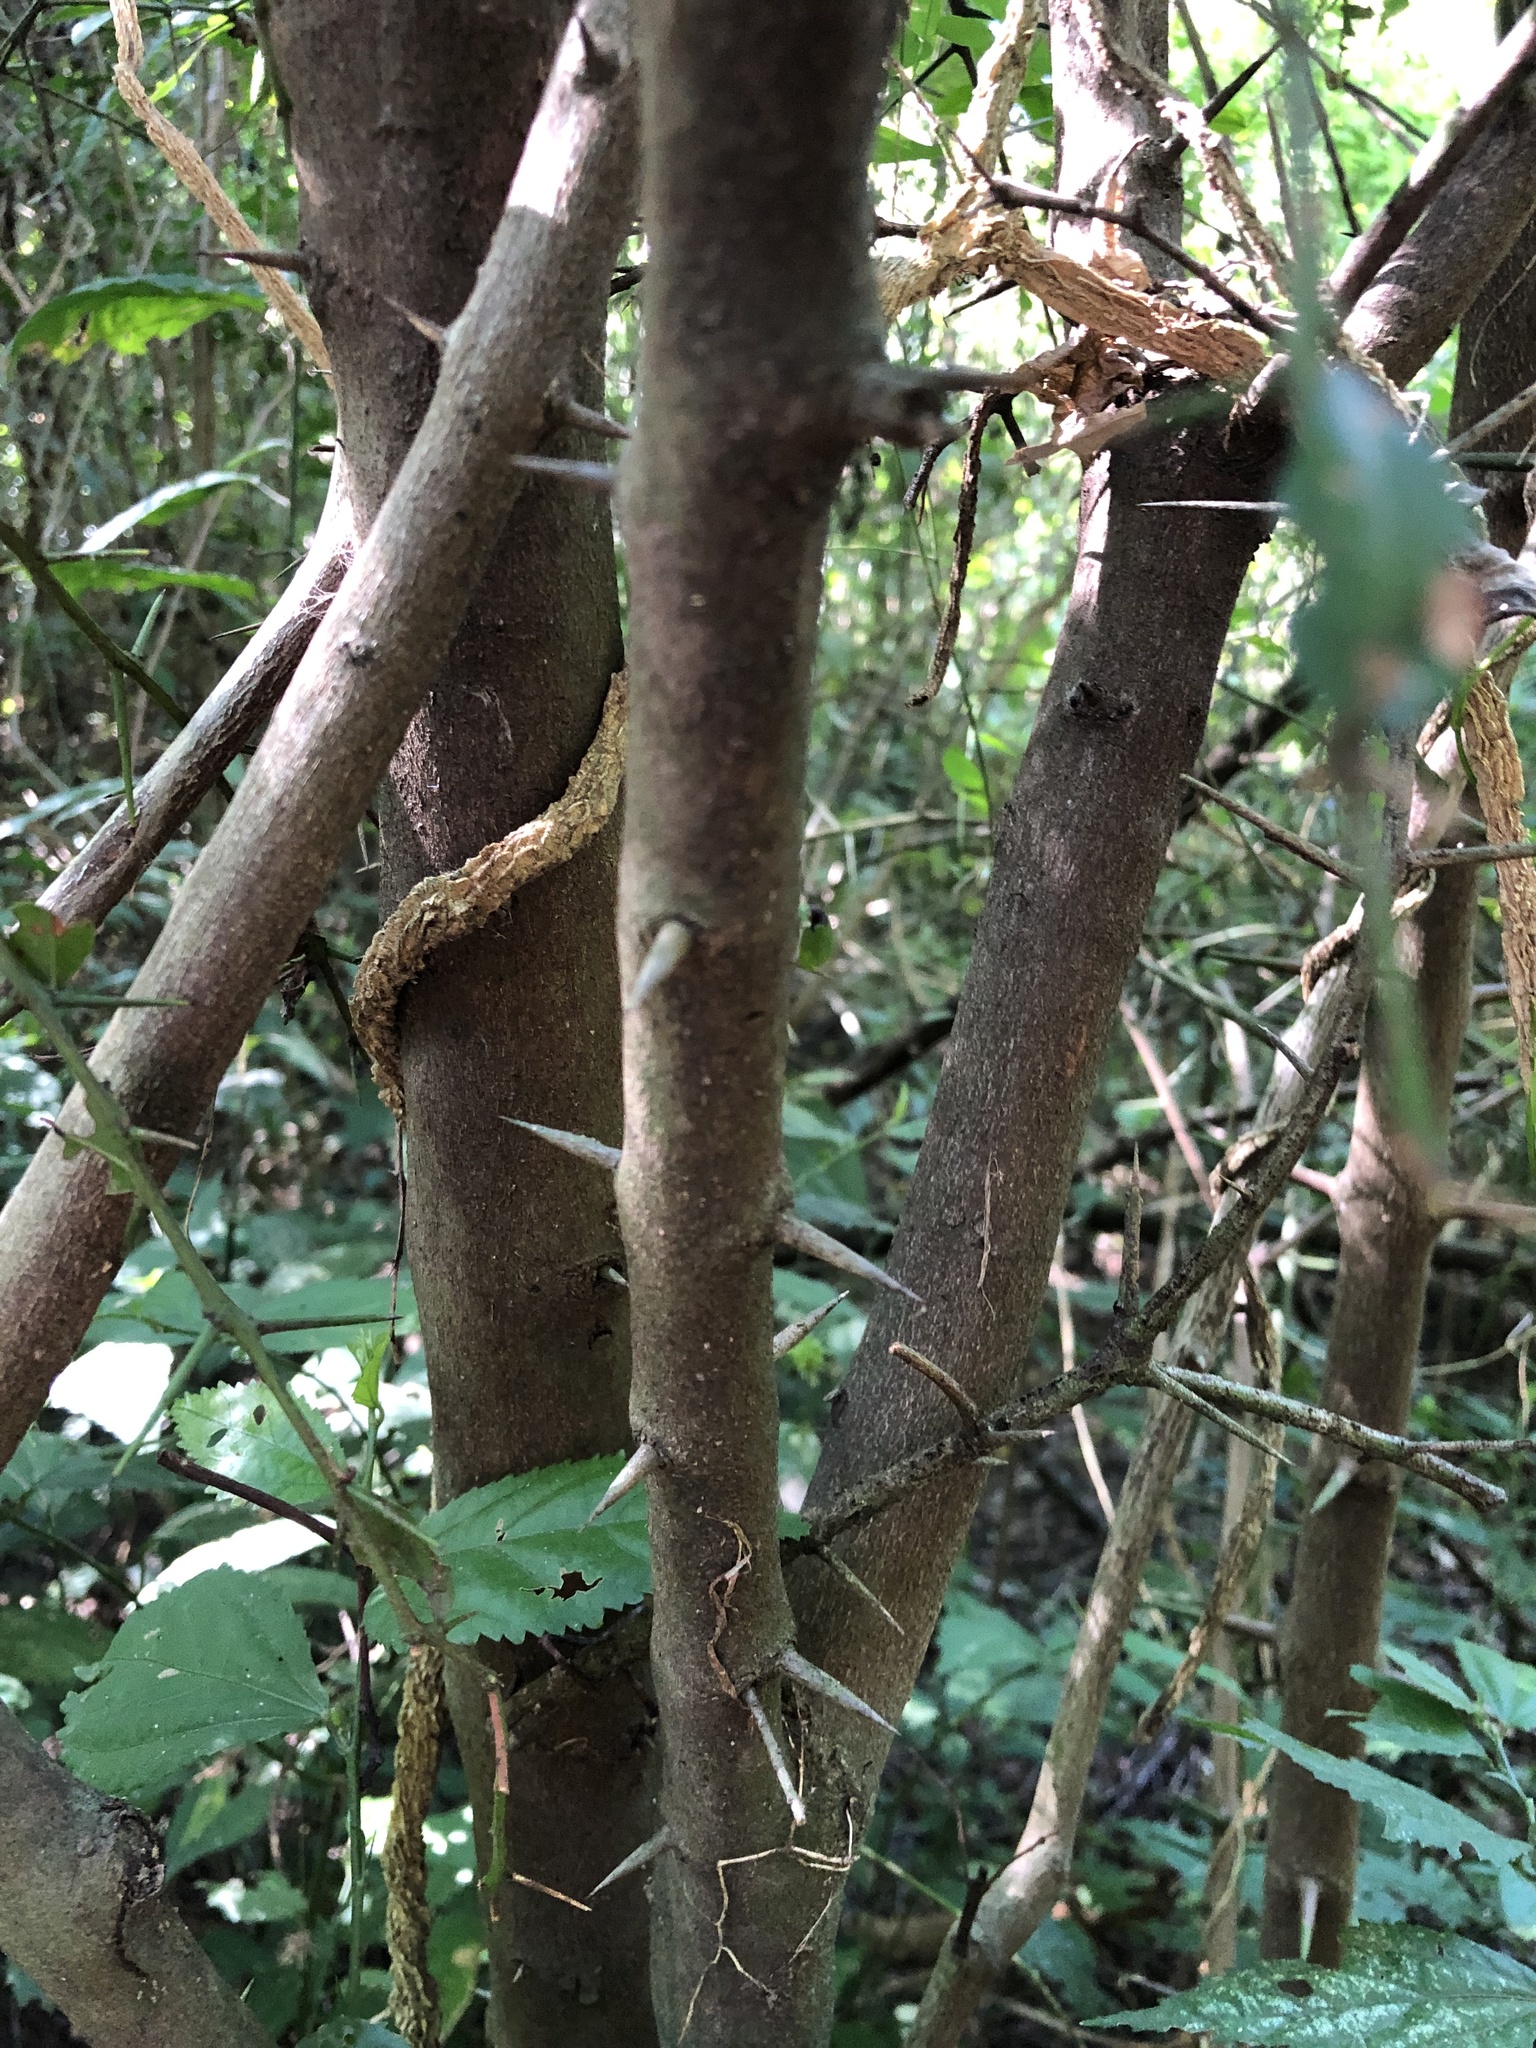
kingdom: Plantae
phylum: Tracheophyta
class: Magnoliopsida
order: Rosales
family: Rhamnaceae
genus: Scutia
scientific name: Scutia buxifolia
